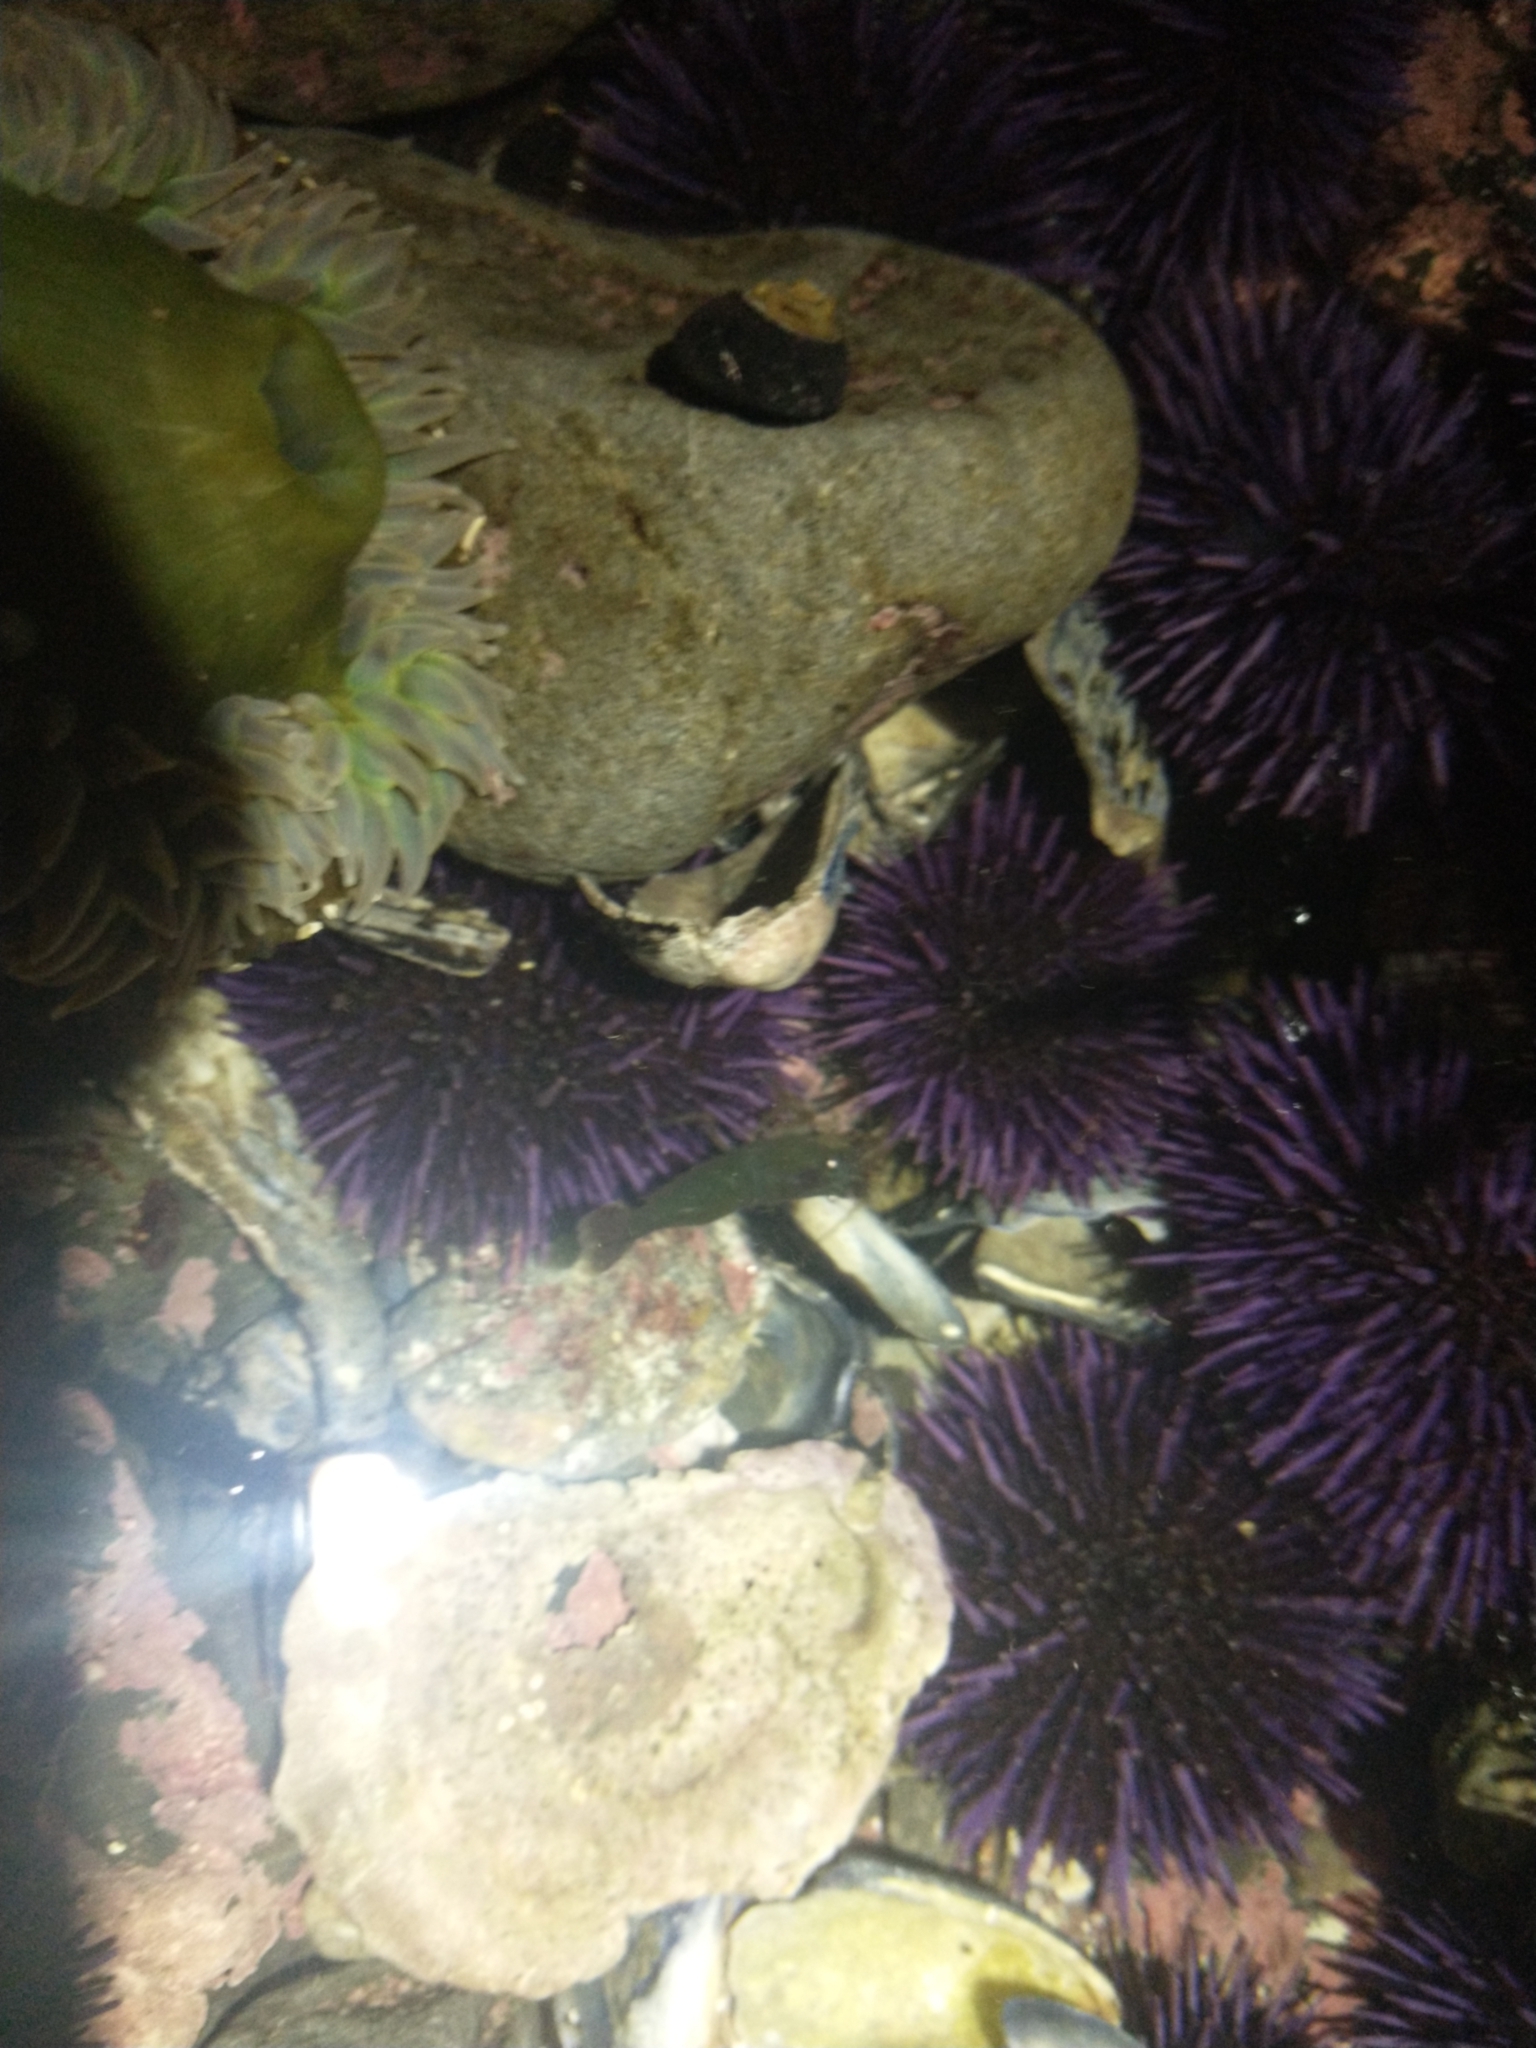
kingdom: Animalia
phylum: Echinodermata
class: Echinoidea
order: Camarodonta
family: Strongylocentrotidae
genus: Strongylocentrotus
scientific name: Strongylocentrotus purpuratus
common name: Purple sea urchin
